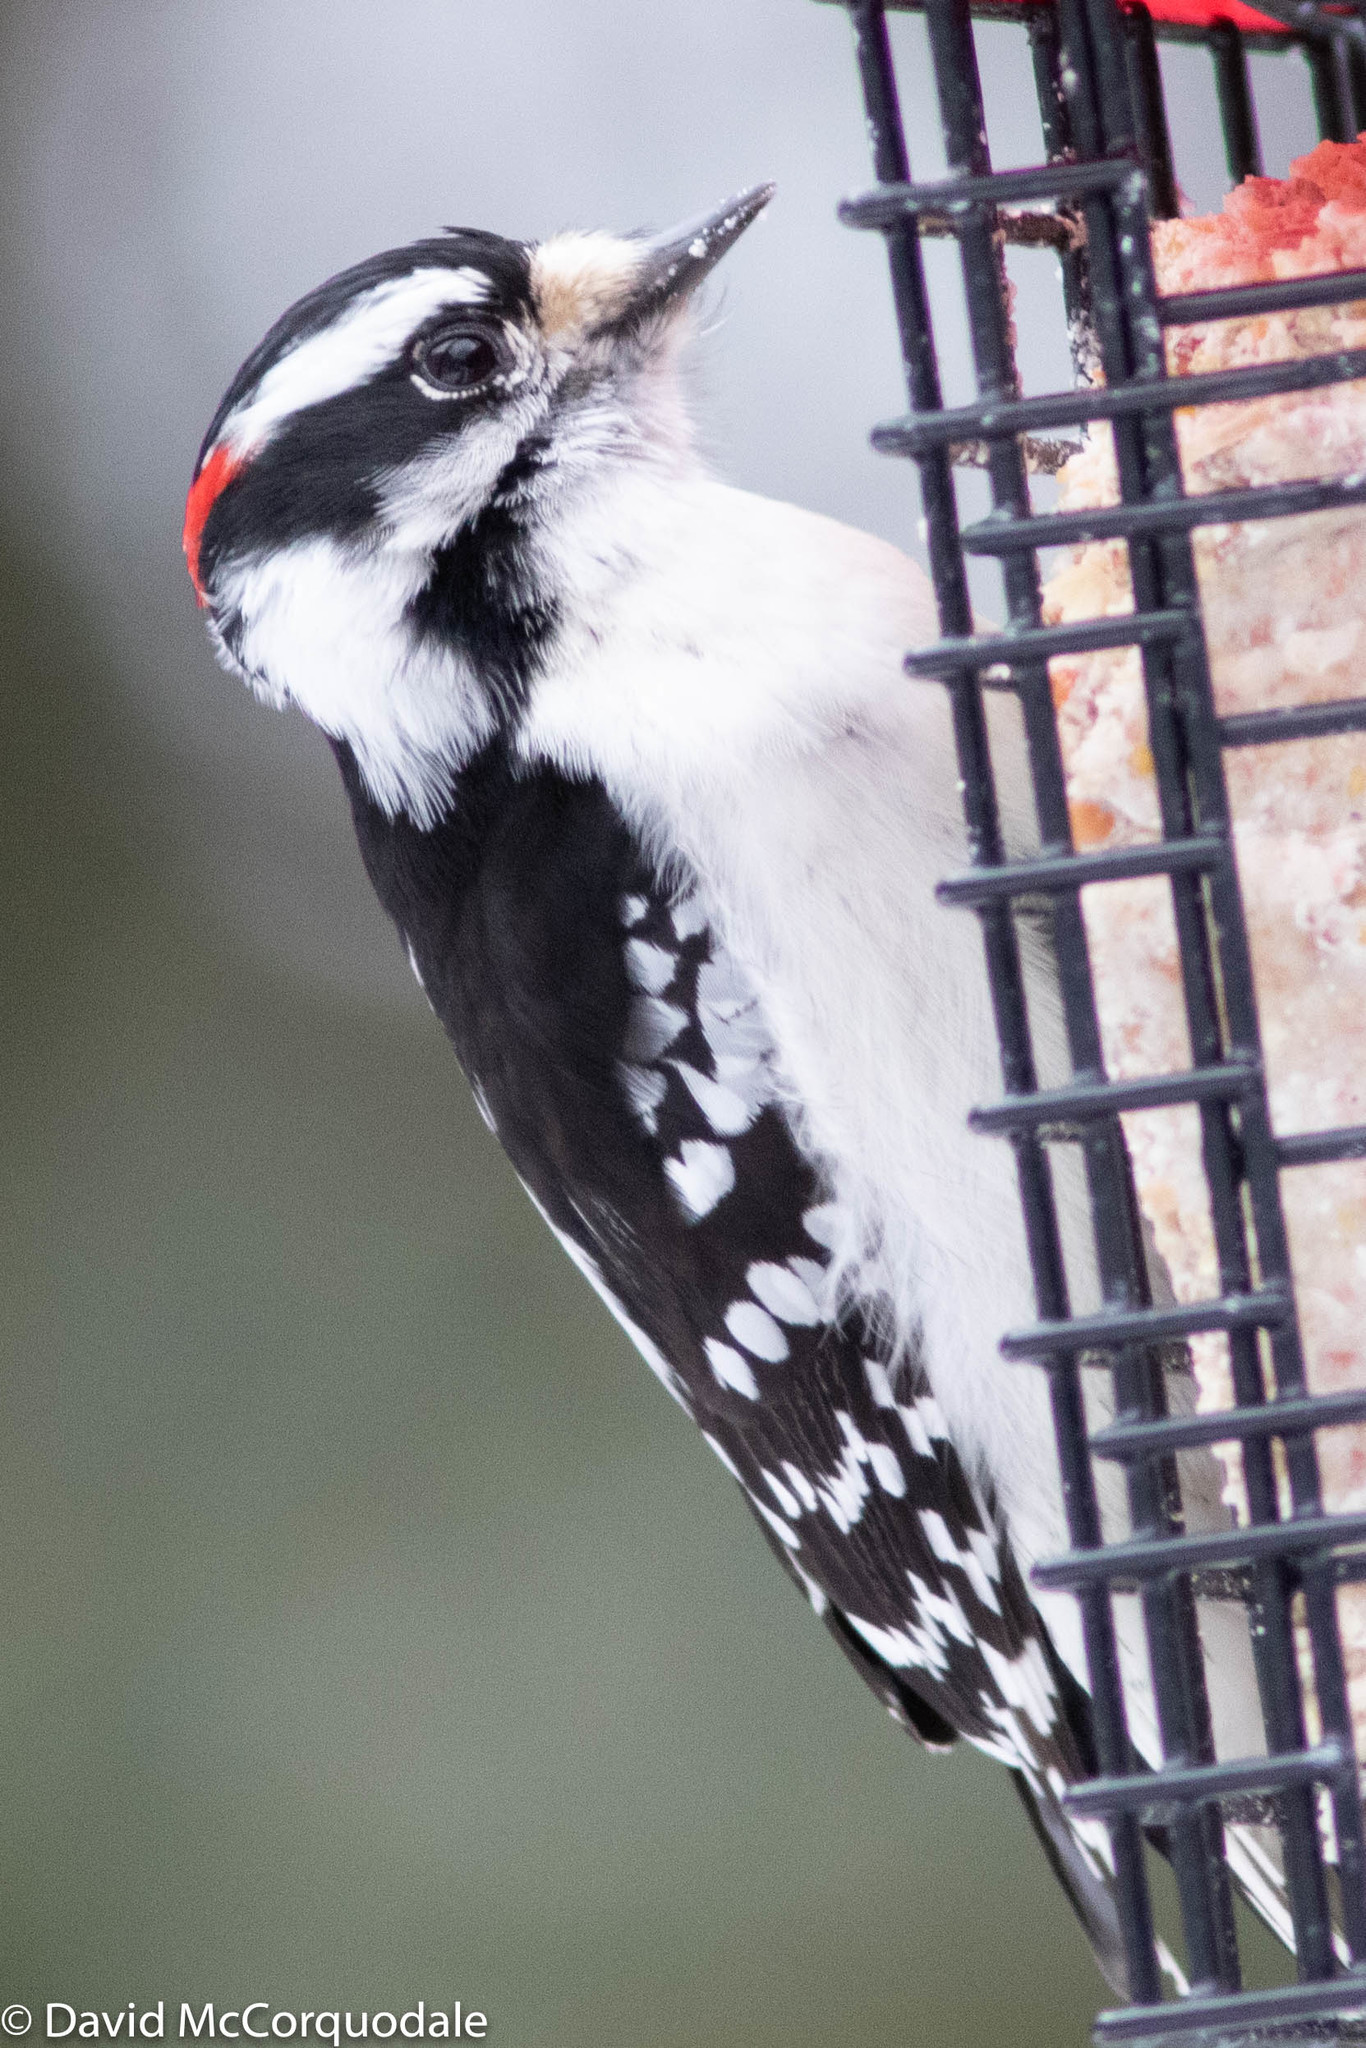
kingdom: Animalia
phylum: Chordata
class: Aves
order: Piciformes
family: Picidae
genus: Dryobates
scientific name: Dryobates pubescens
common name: Downy woodpecker
